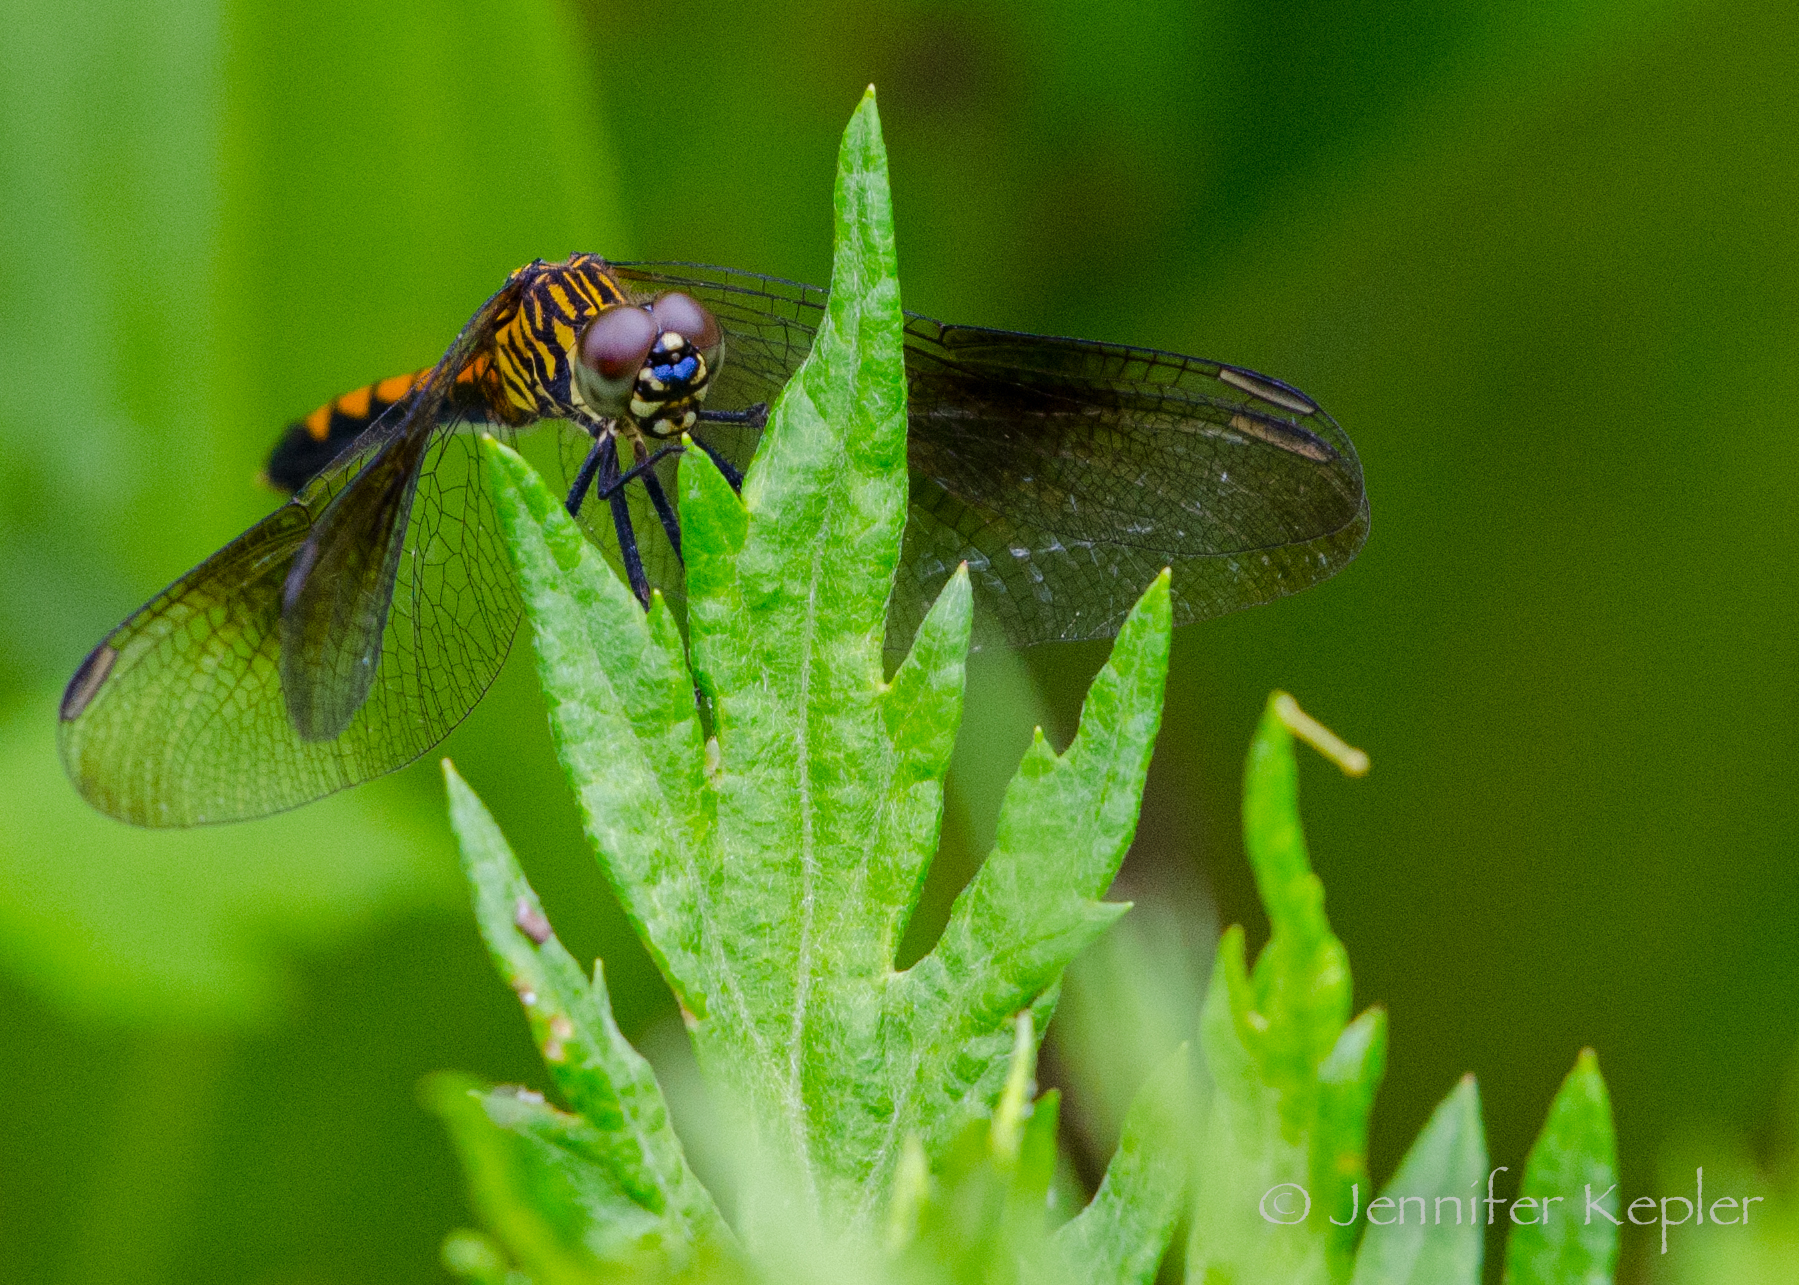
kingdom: Animalia
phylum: Arthropoda
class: Insecta
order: Odonata
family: Libellulidae
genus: Erythrodiplax
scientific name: Erythrodiplax berenice
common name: Seaside dragonlet
